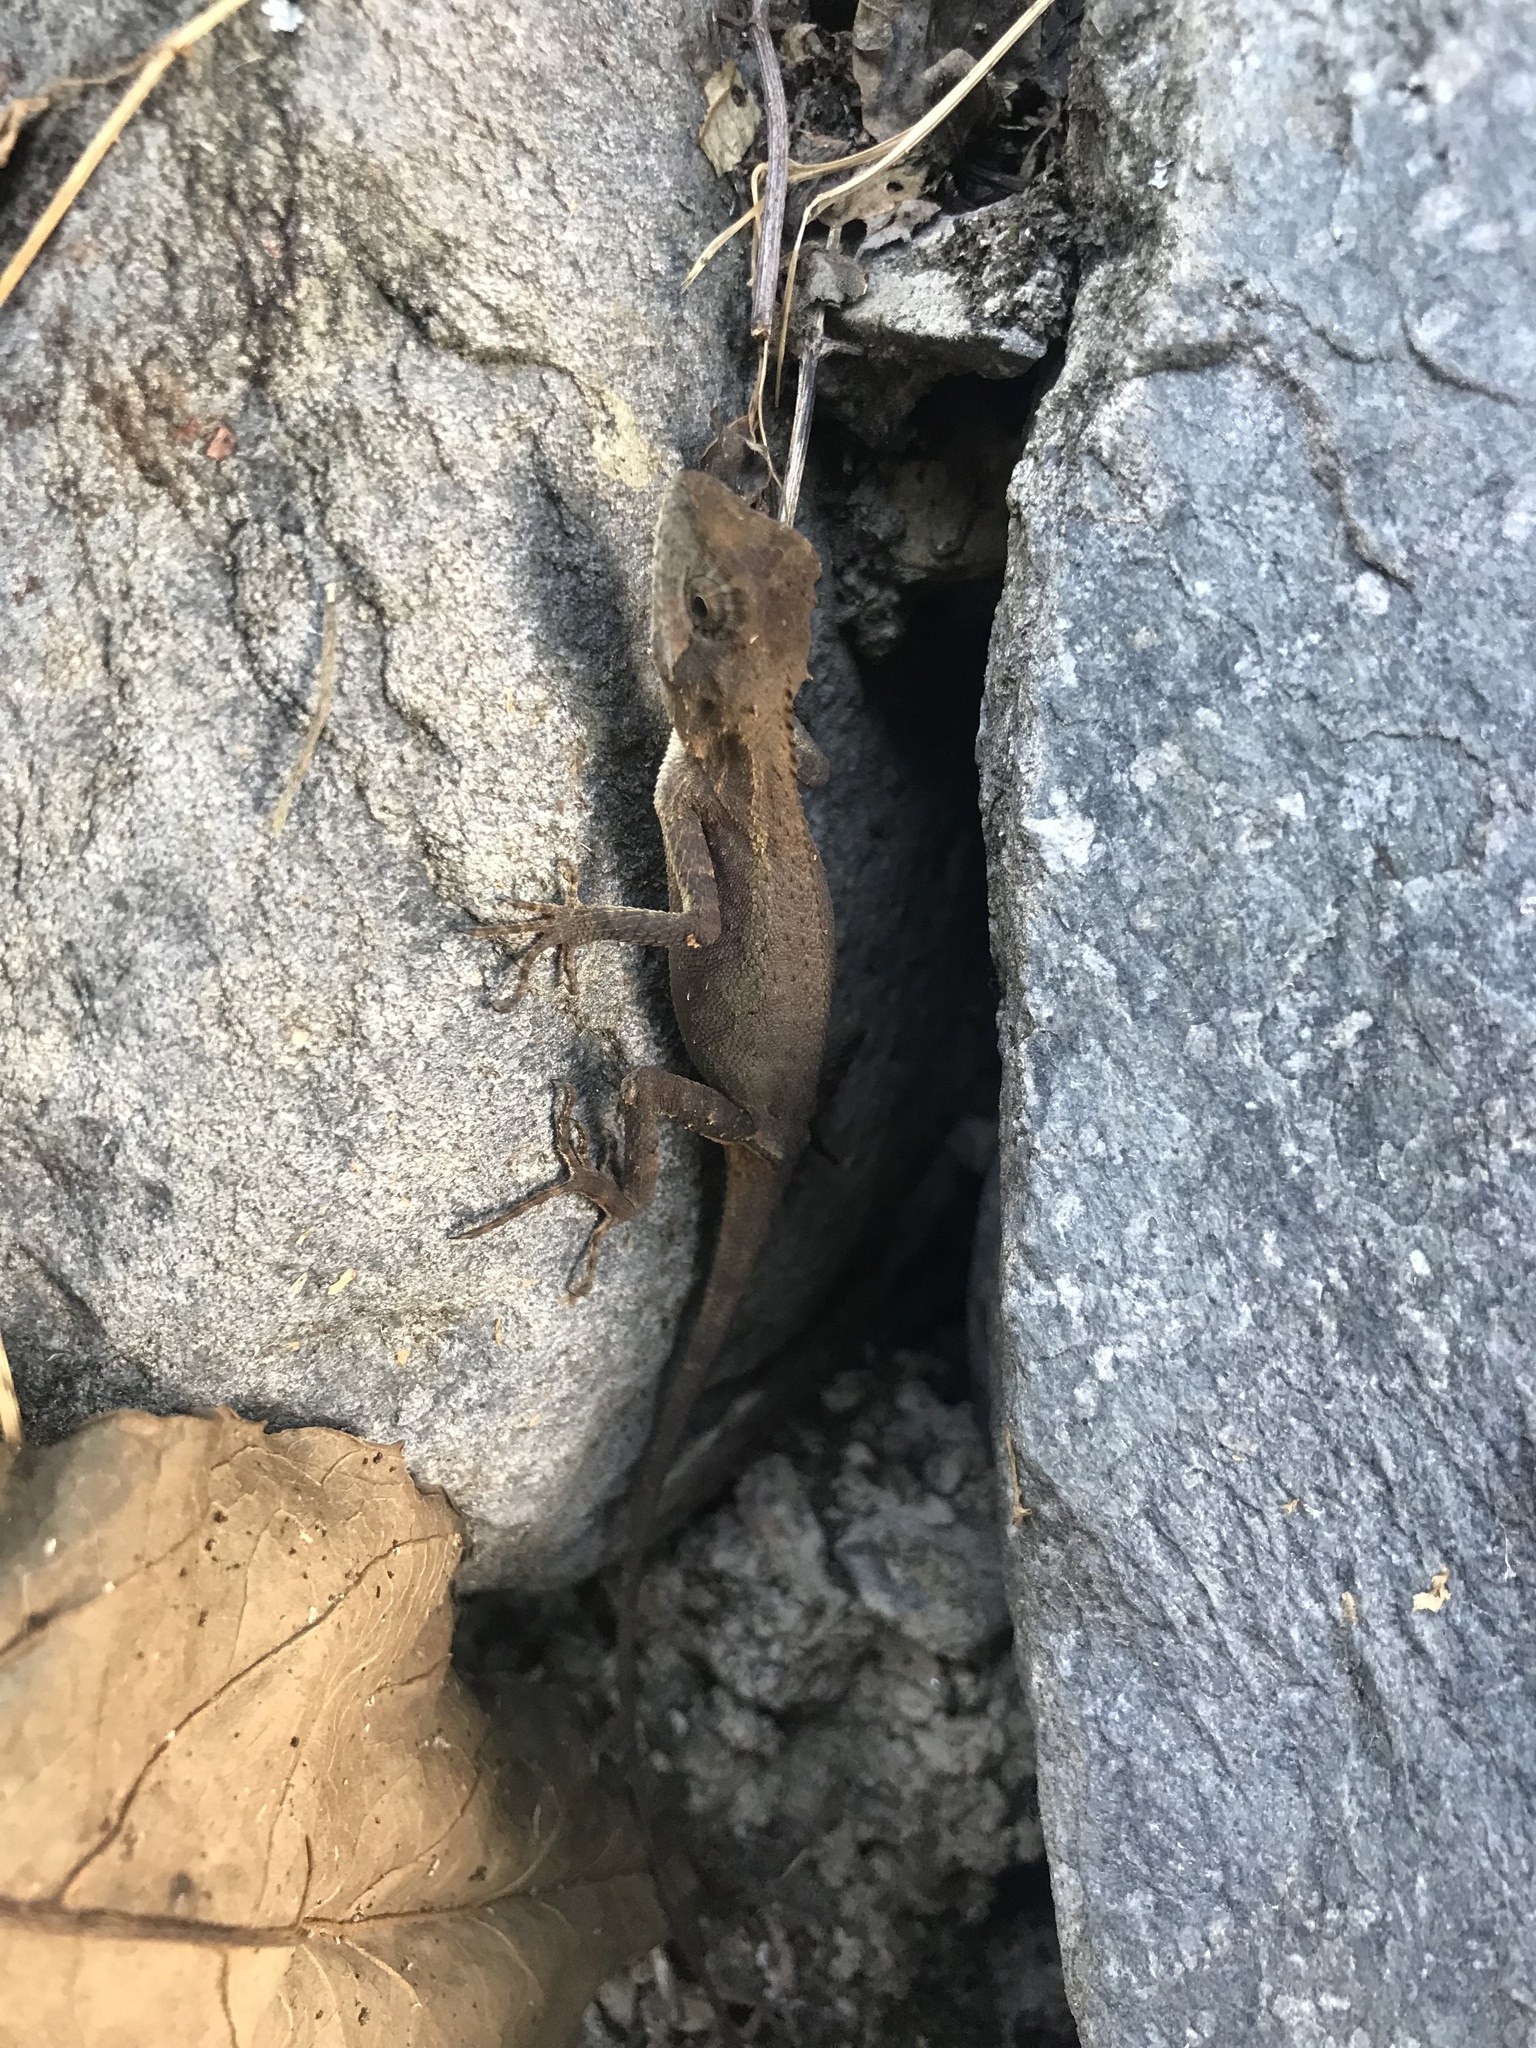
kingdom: Animalia
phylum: Chordata
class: Squamata
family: Agamidae
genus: Diploderma
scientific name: Diploderma swinhonis
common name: Taiwan japalure
